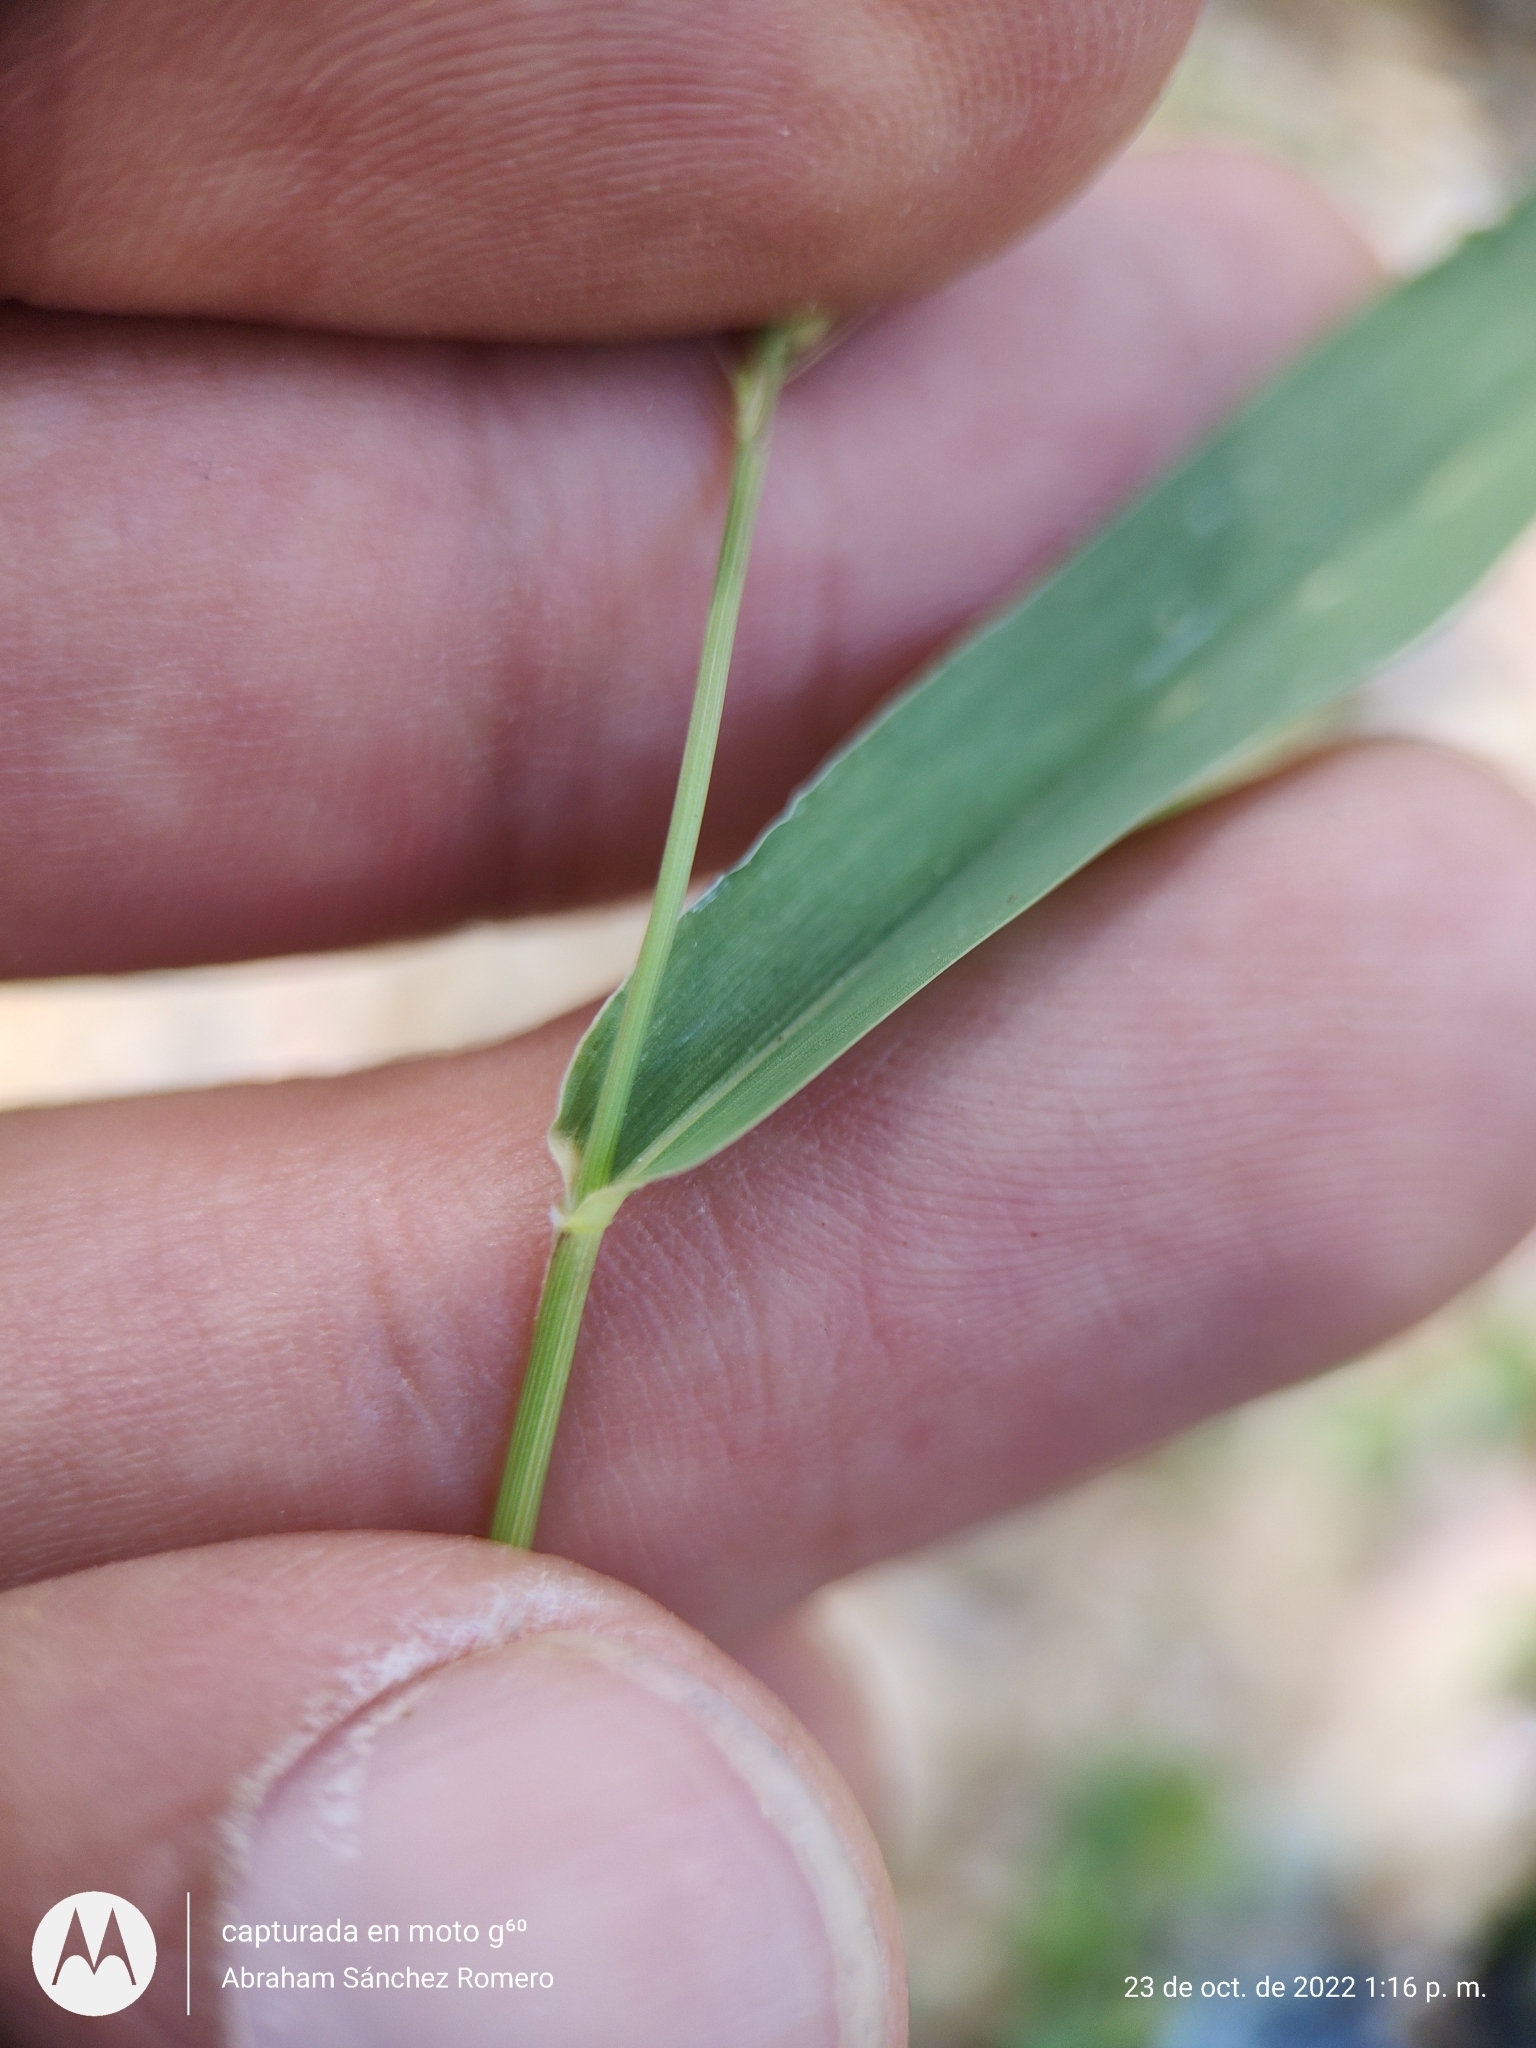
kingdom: Plantae
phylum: Tracheophyta
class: Liliopsida
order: Poales
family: Poaceae
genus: Setaria
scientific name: Setaria liebmannii
